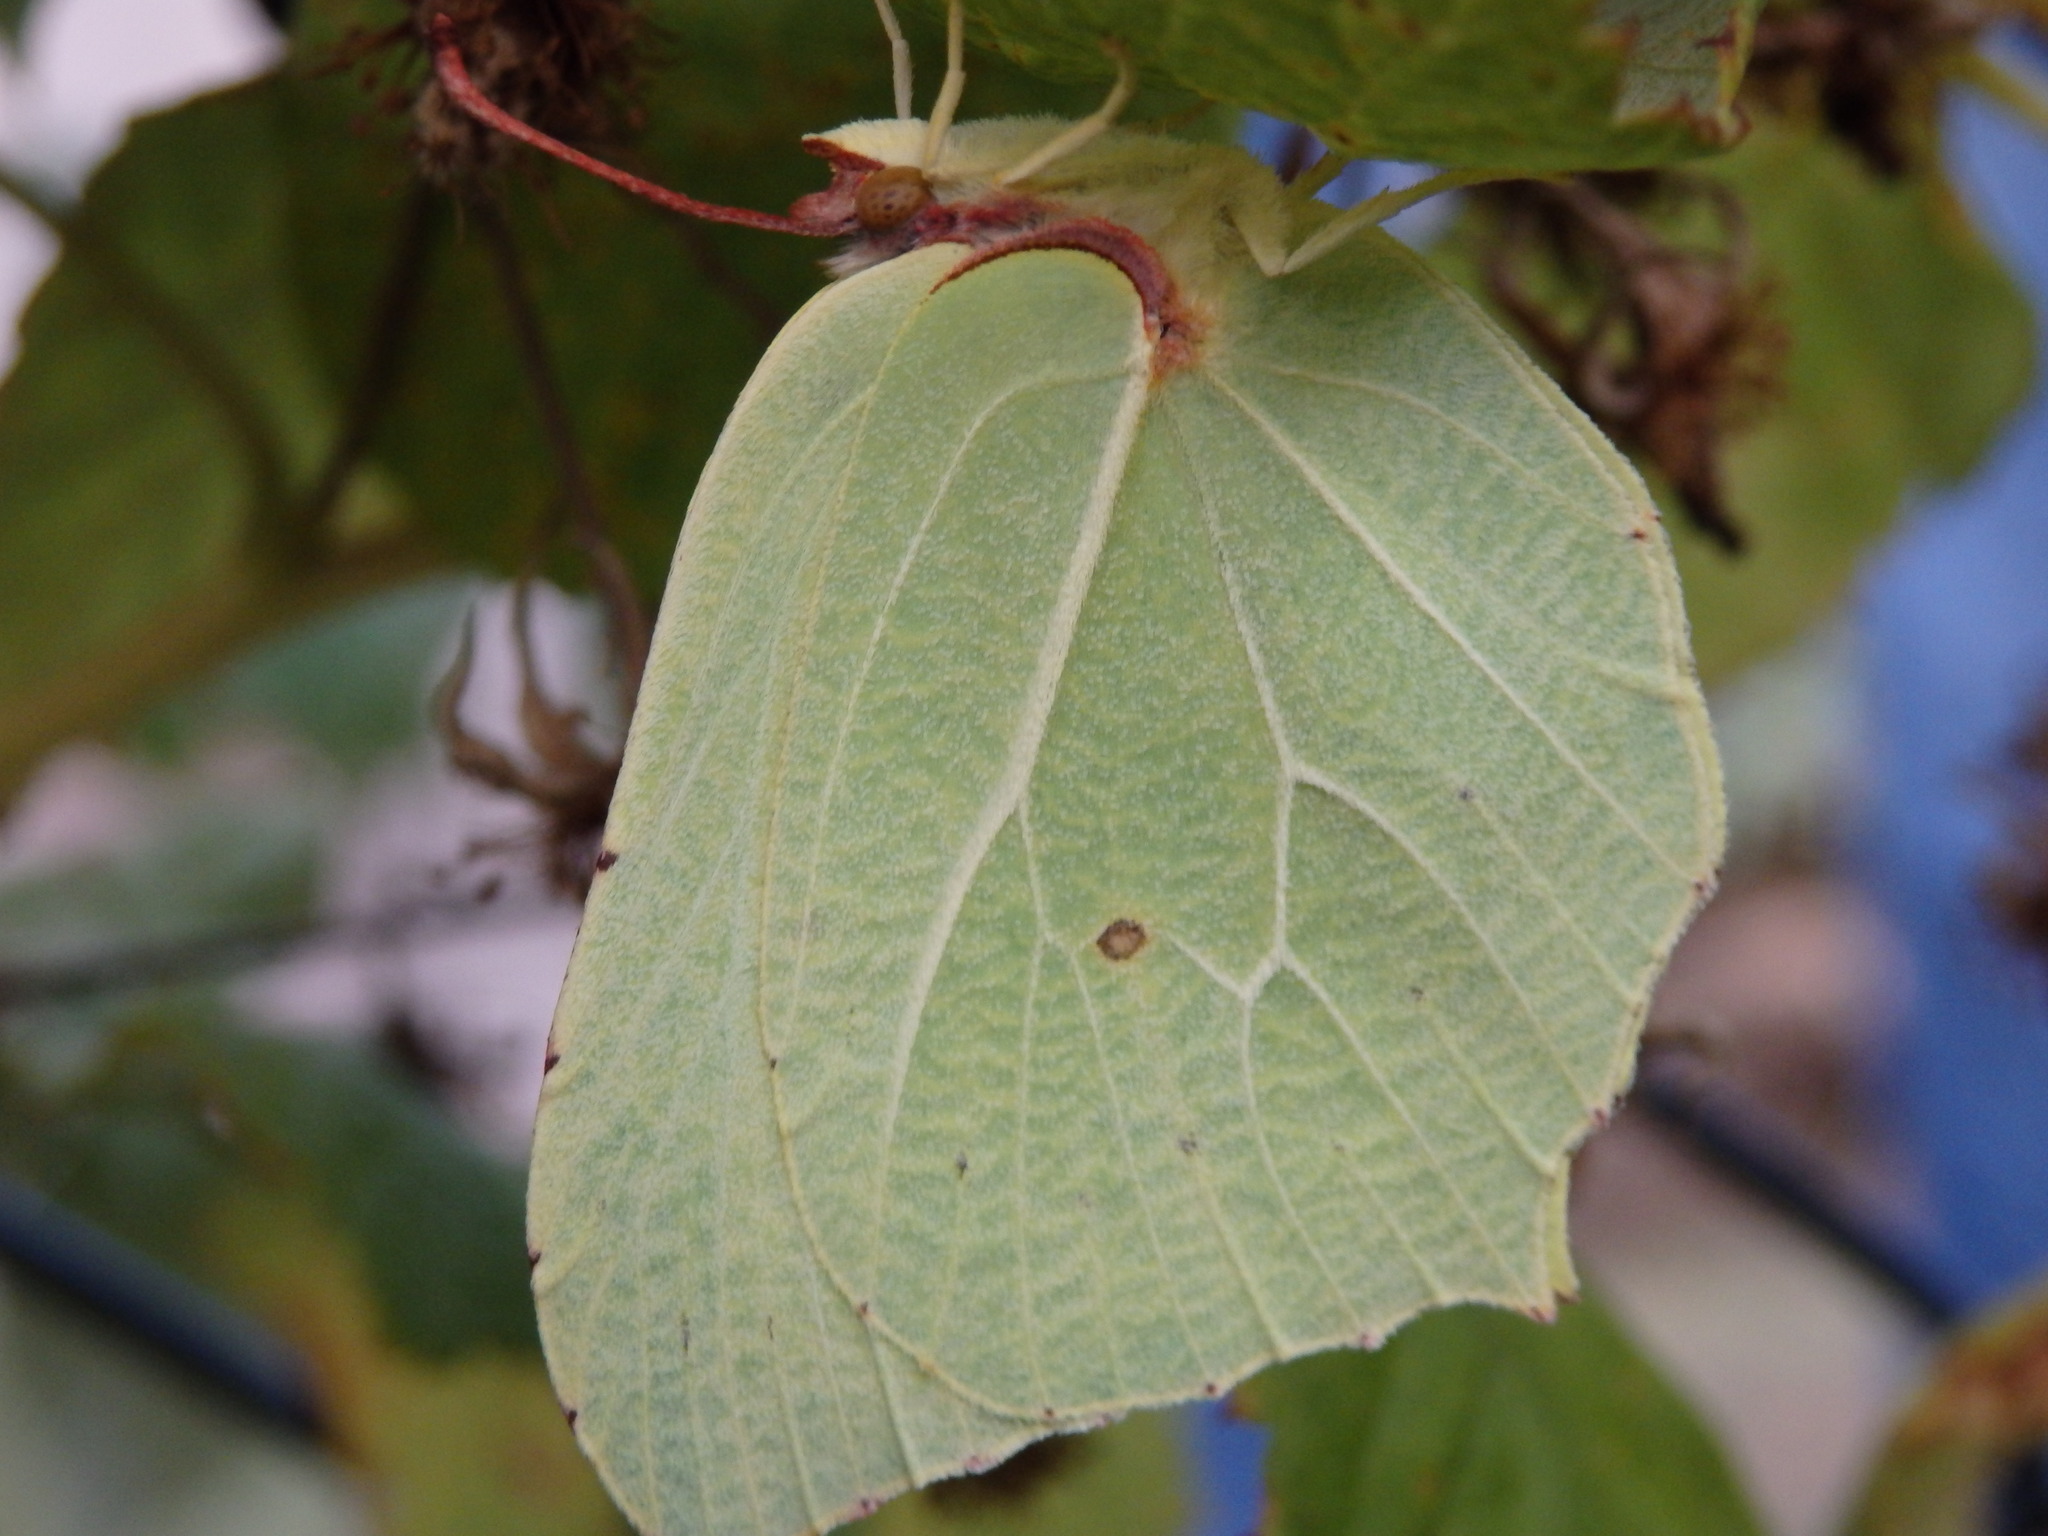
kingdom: Animalia
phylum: Arthropoda
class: Insecta
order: Lepidoptera
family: Pieridae
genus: Gonepteryx
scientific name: Gonepteryx rhamni
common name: Brimstone
